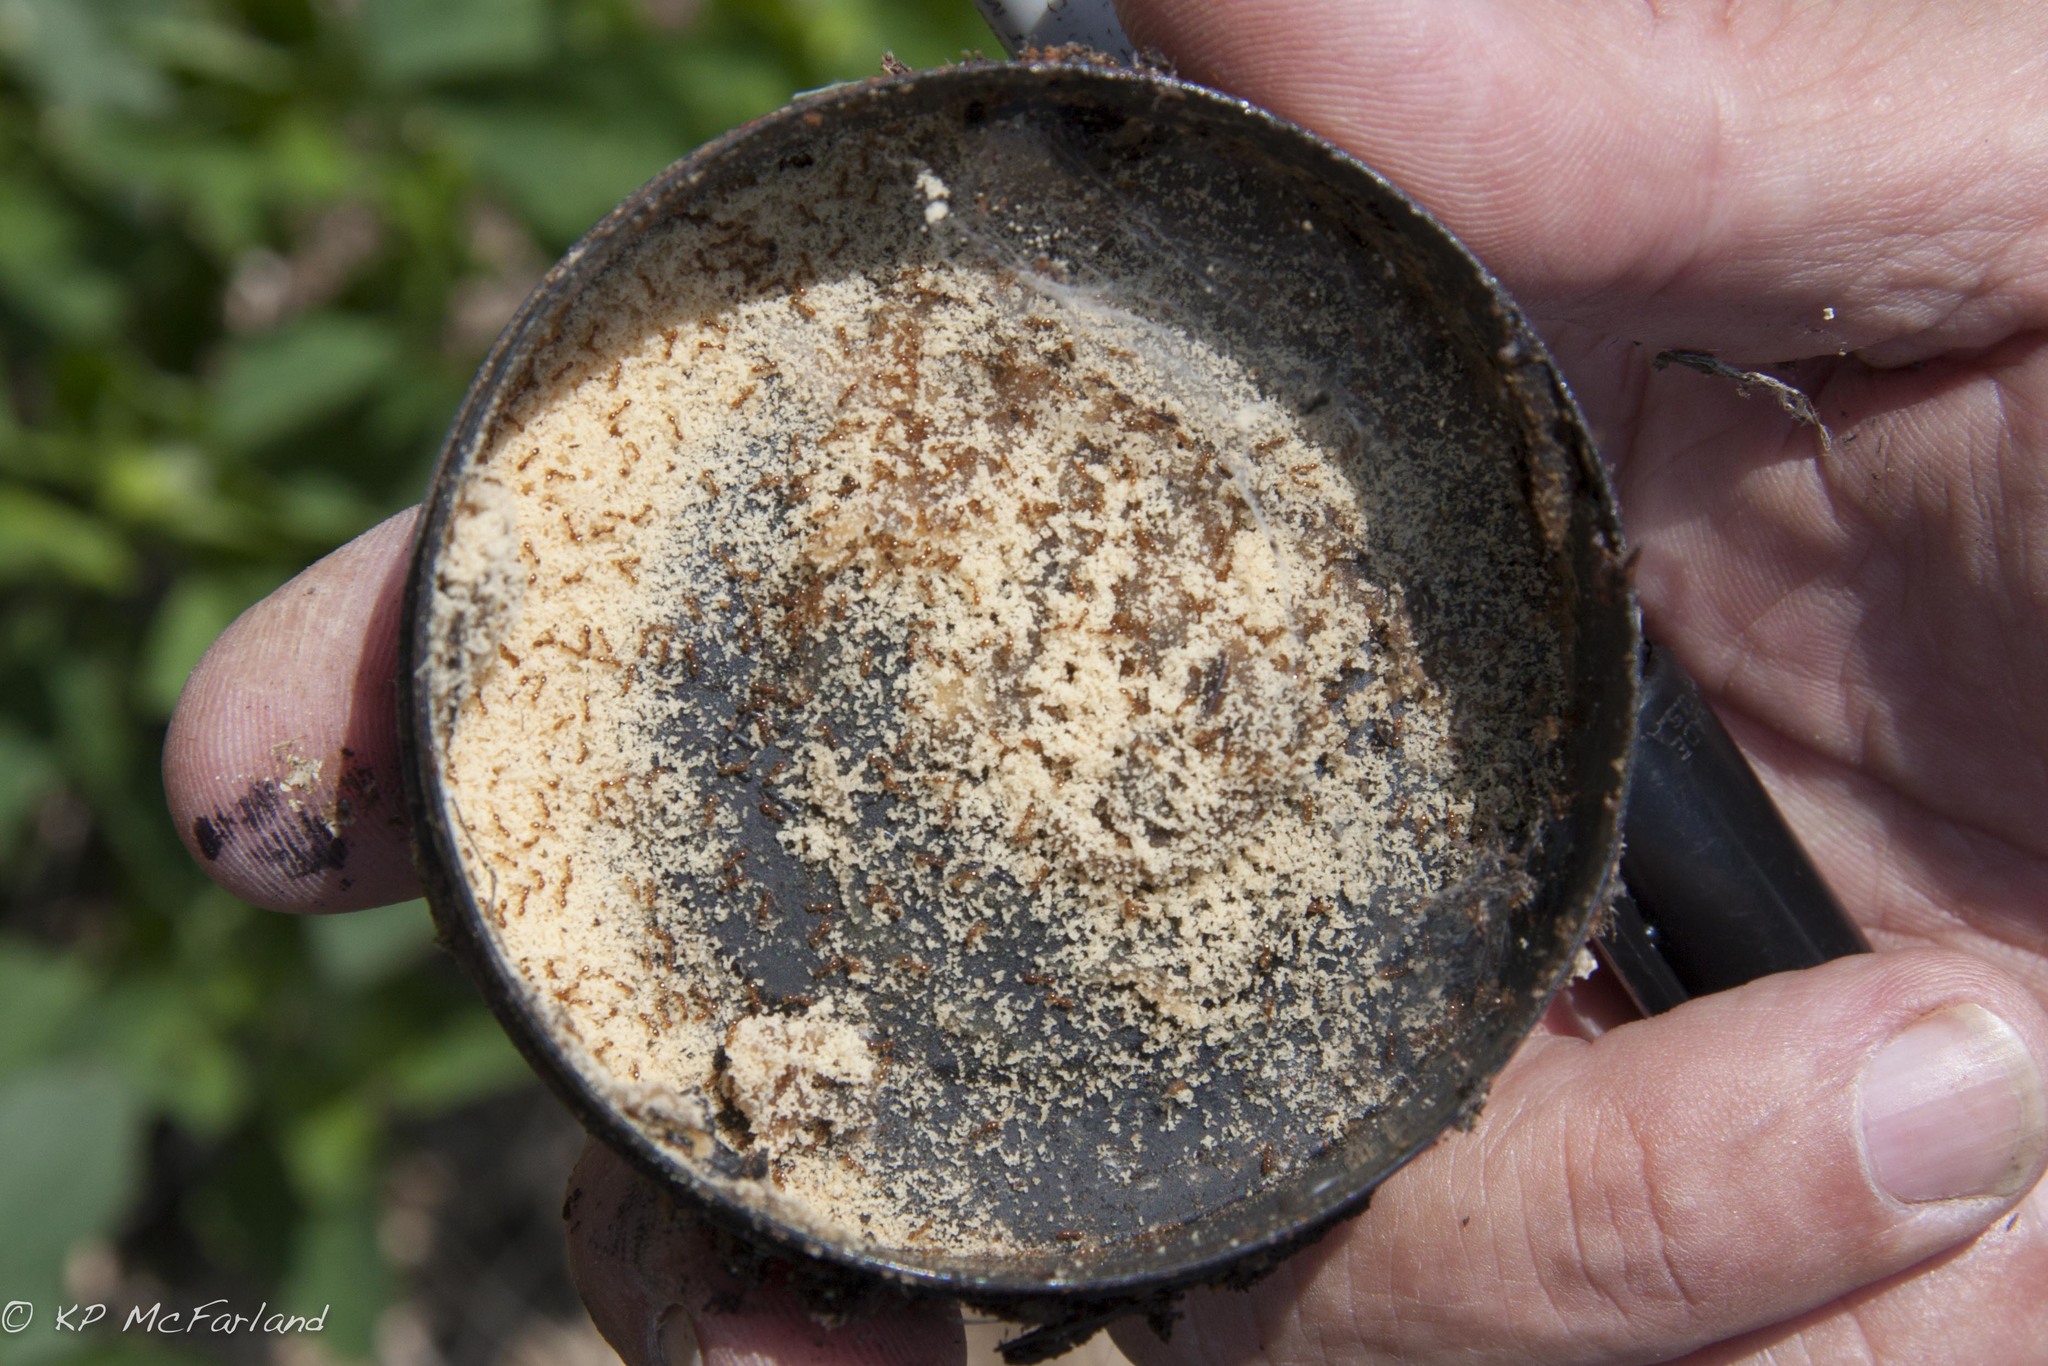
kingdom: Animalia
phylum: Arthropoda
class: Insecta
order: Hymenoptera
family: Formicidae
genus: Solenopsis
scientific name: Solenopsis molesta
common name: Thief ant
